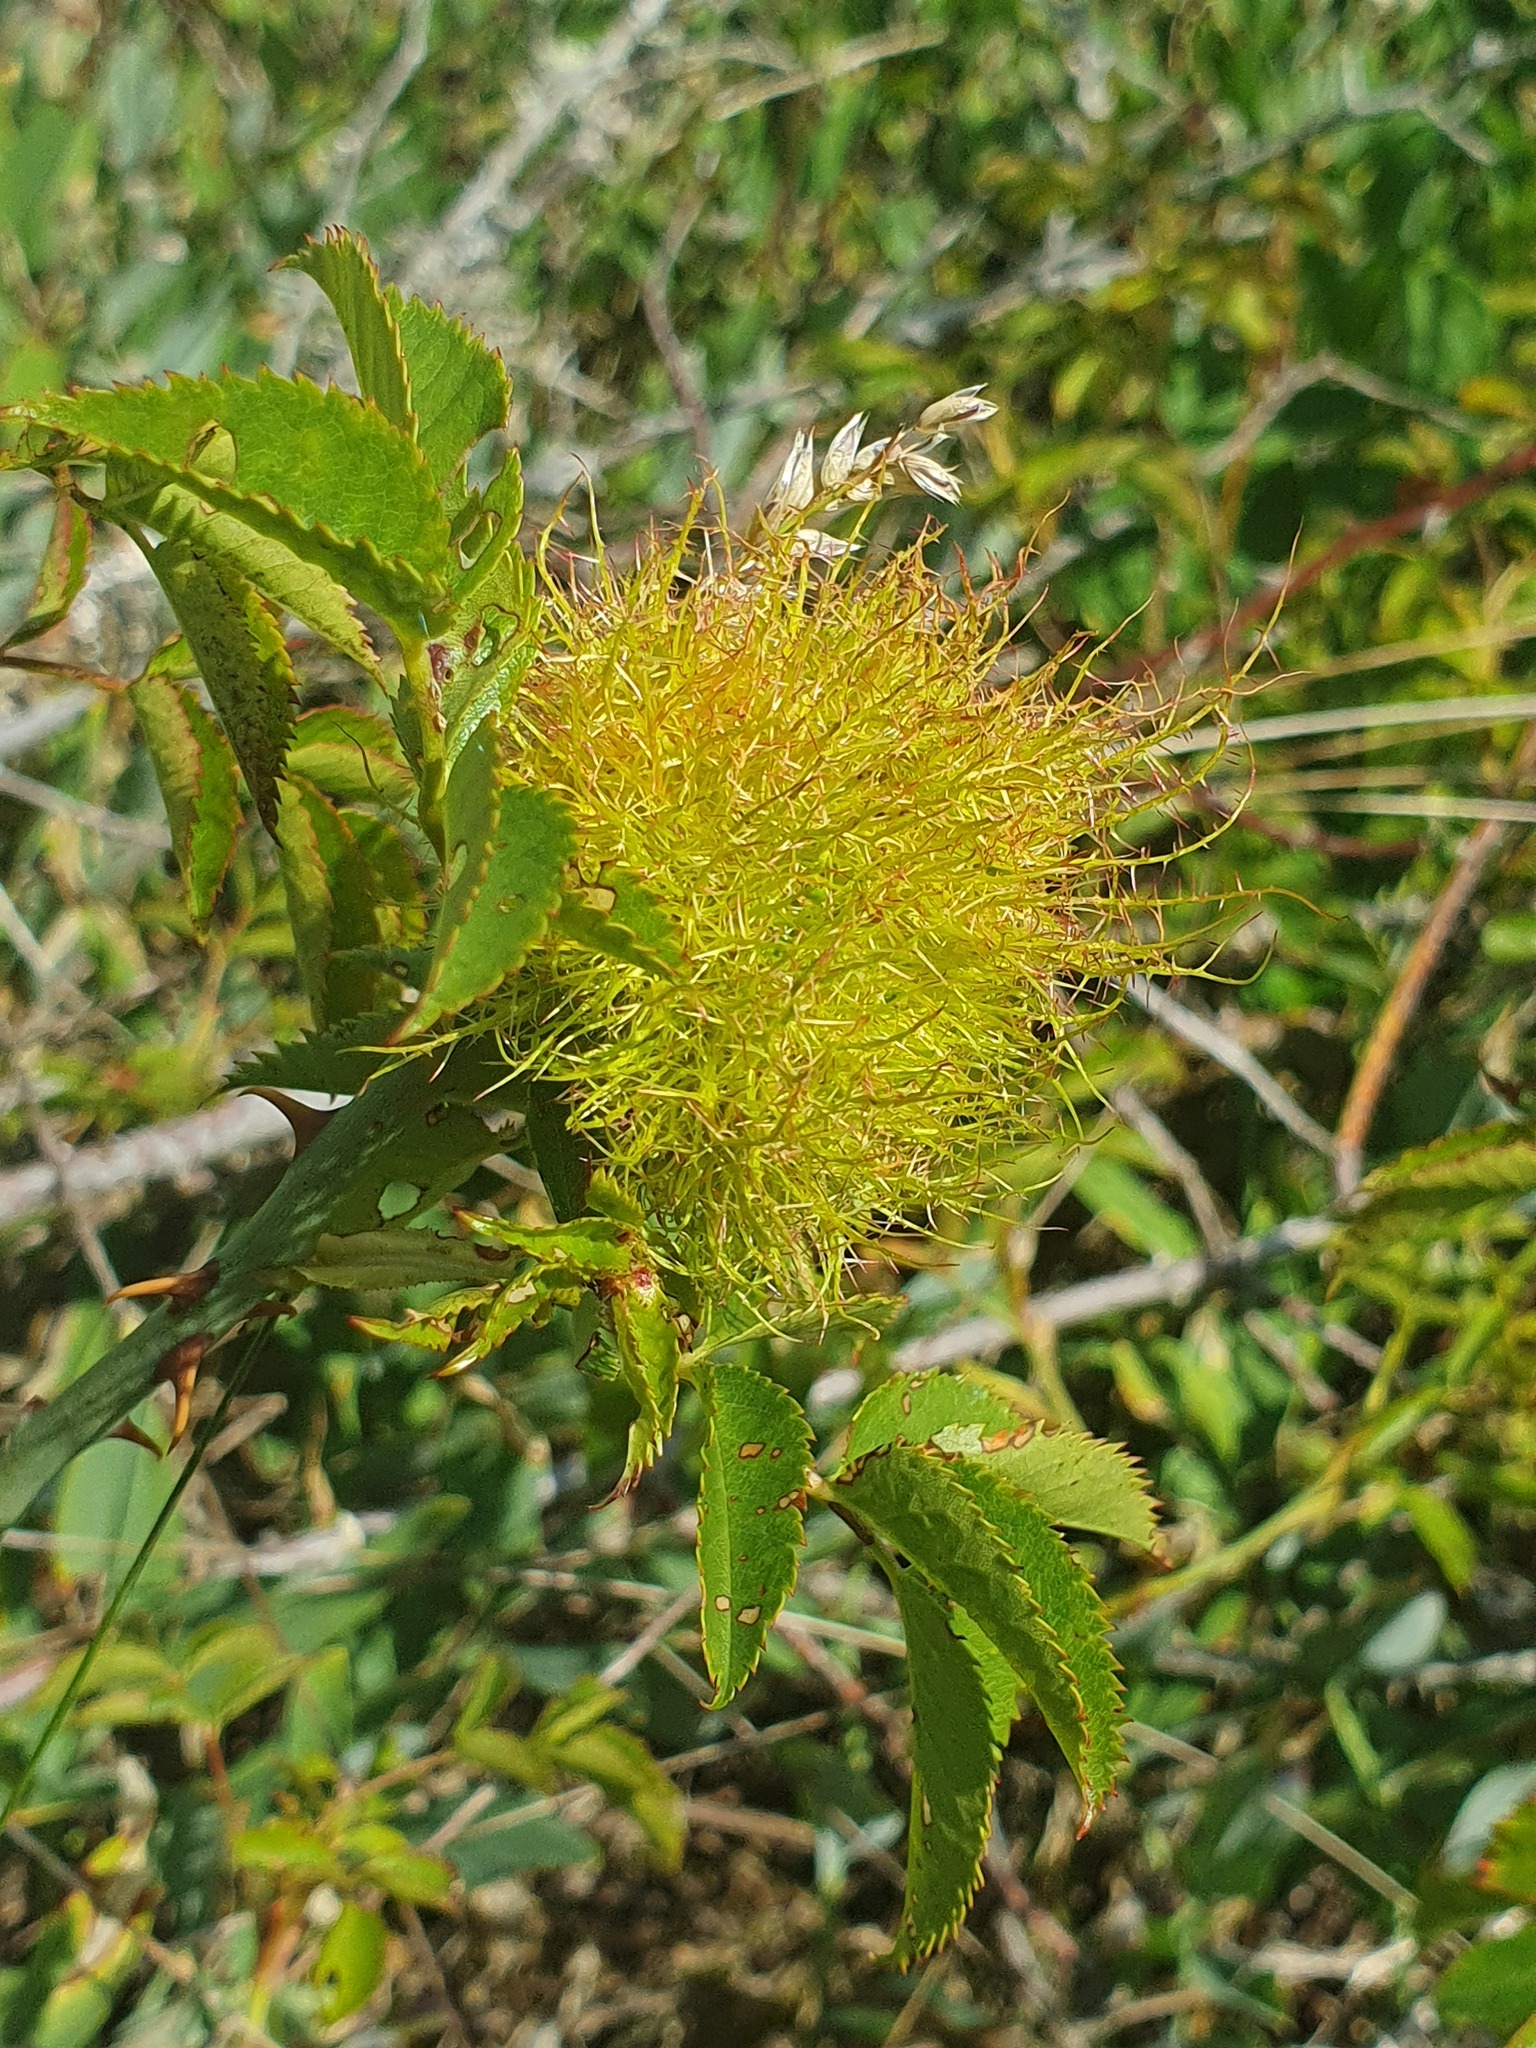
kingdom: Animalia
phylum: Arthropoda
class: Insecta
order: Hymenoptera
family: Cynipidae
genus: Diplolepis
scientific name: Diplolepis rosae
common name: Bedeguar gall
